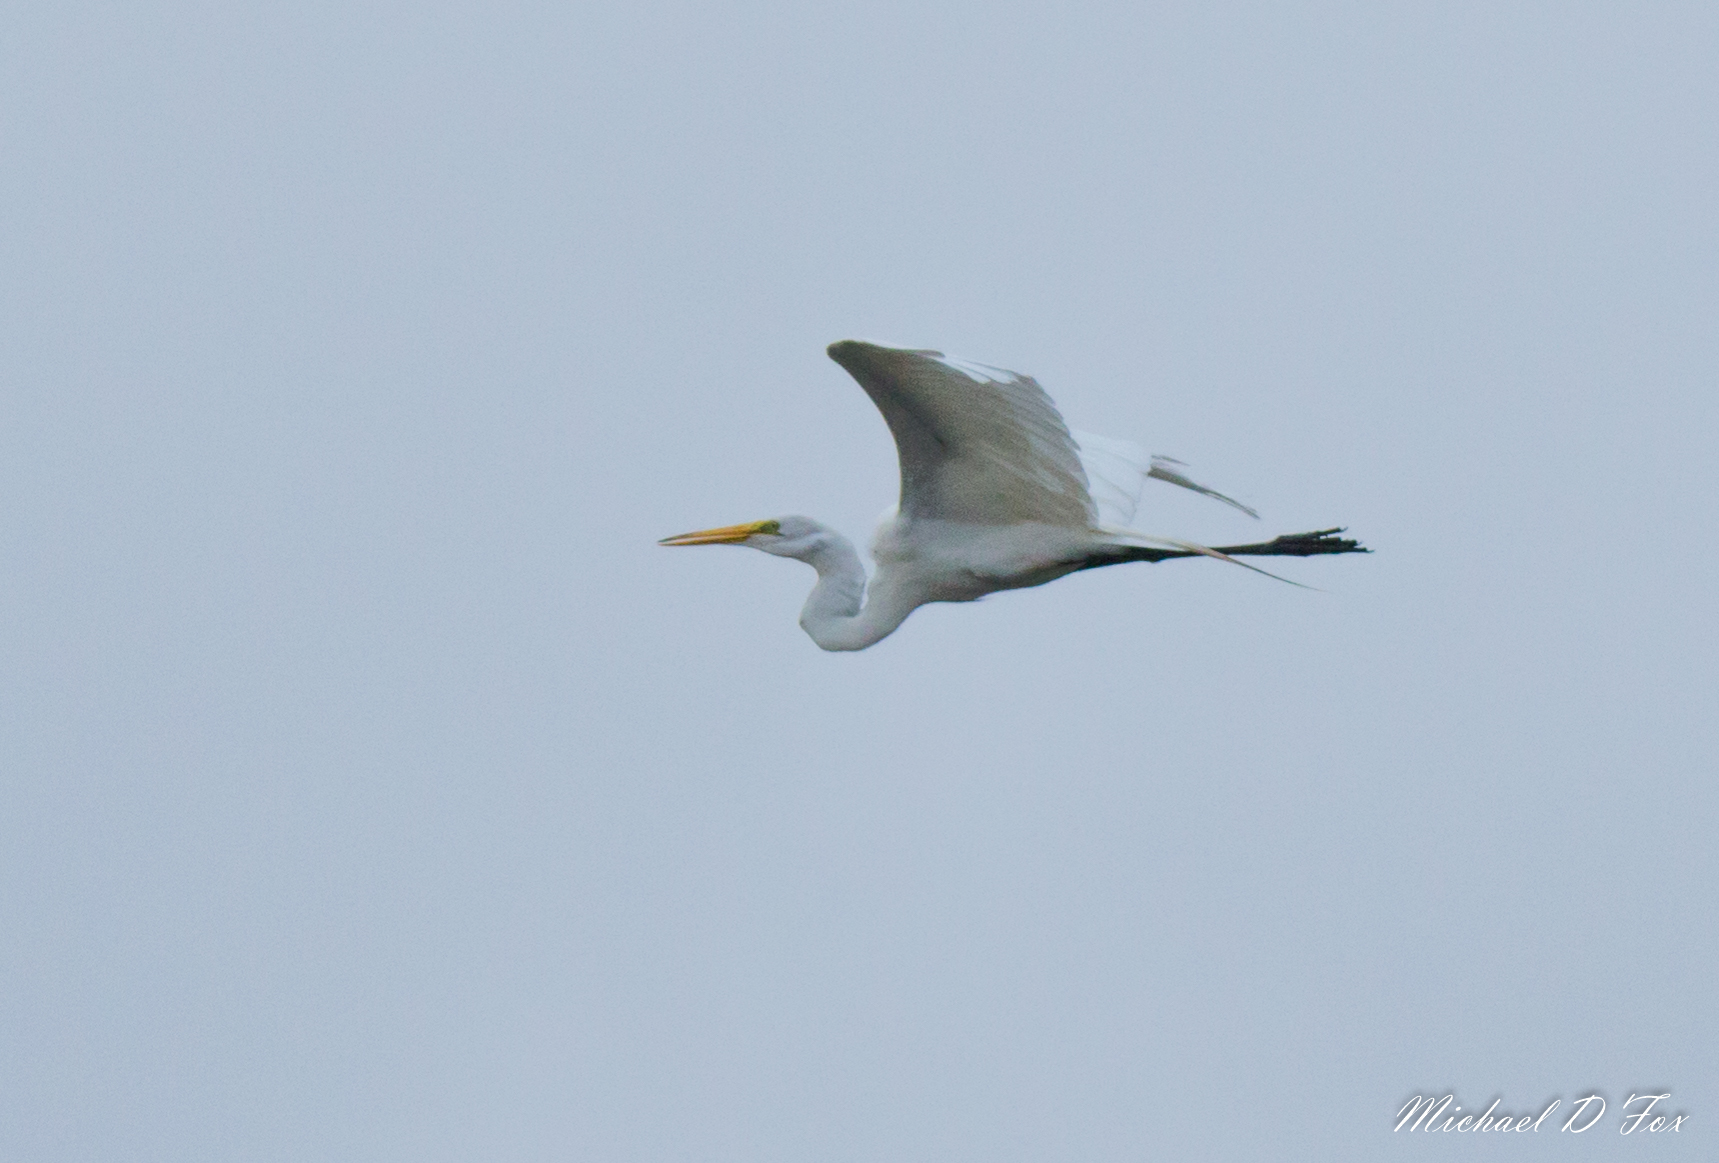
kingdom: Animalia
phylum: Chordata
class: Aves
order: Pelecaniformes
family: Ardeidae
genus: Ardea
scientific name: Ardea alba
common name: Great egret
